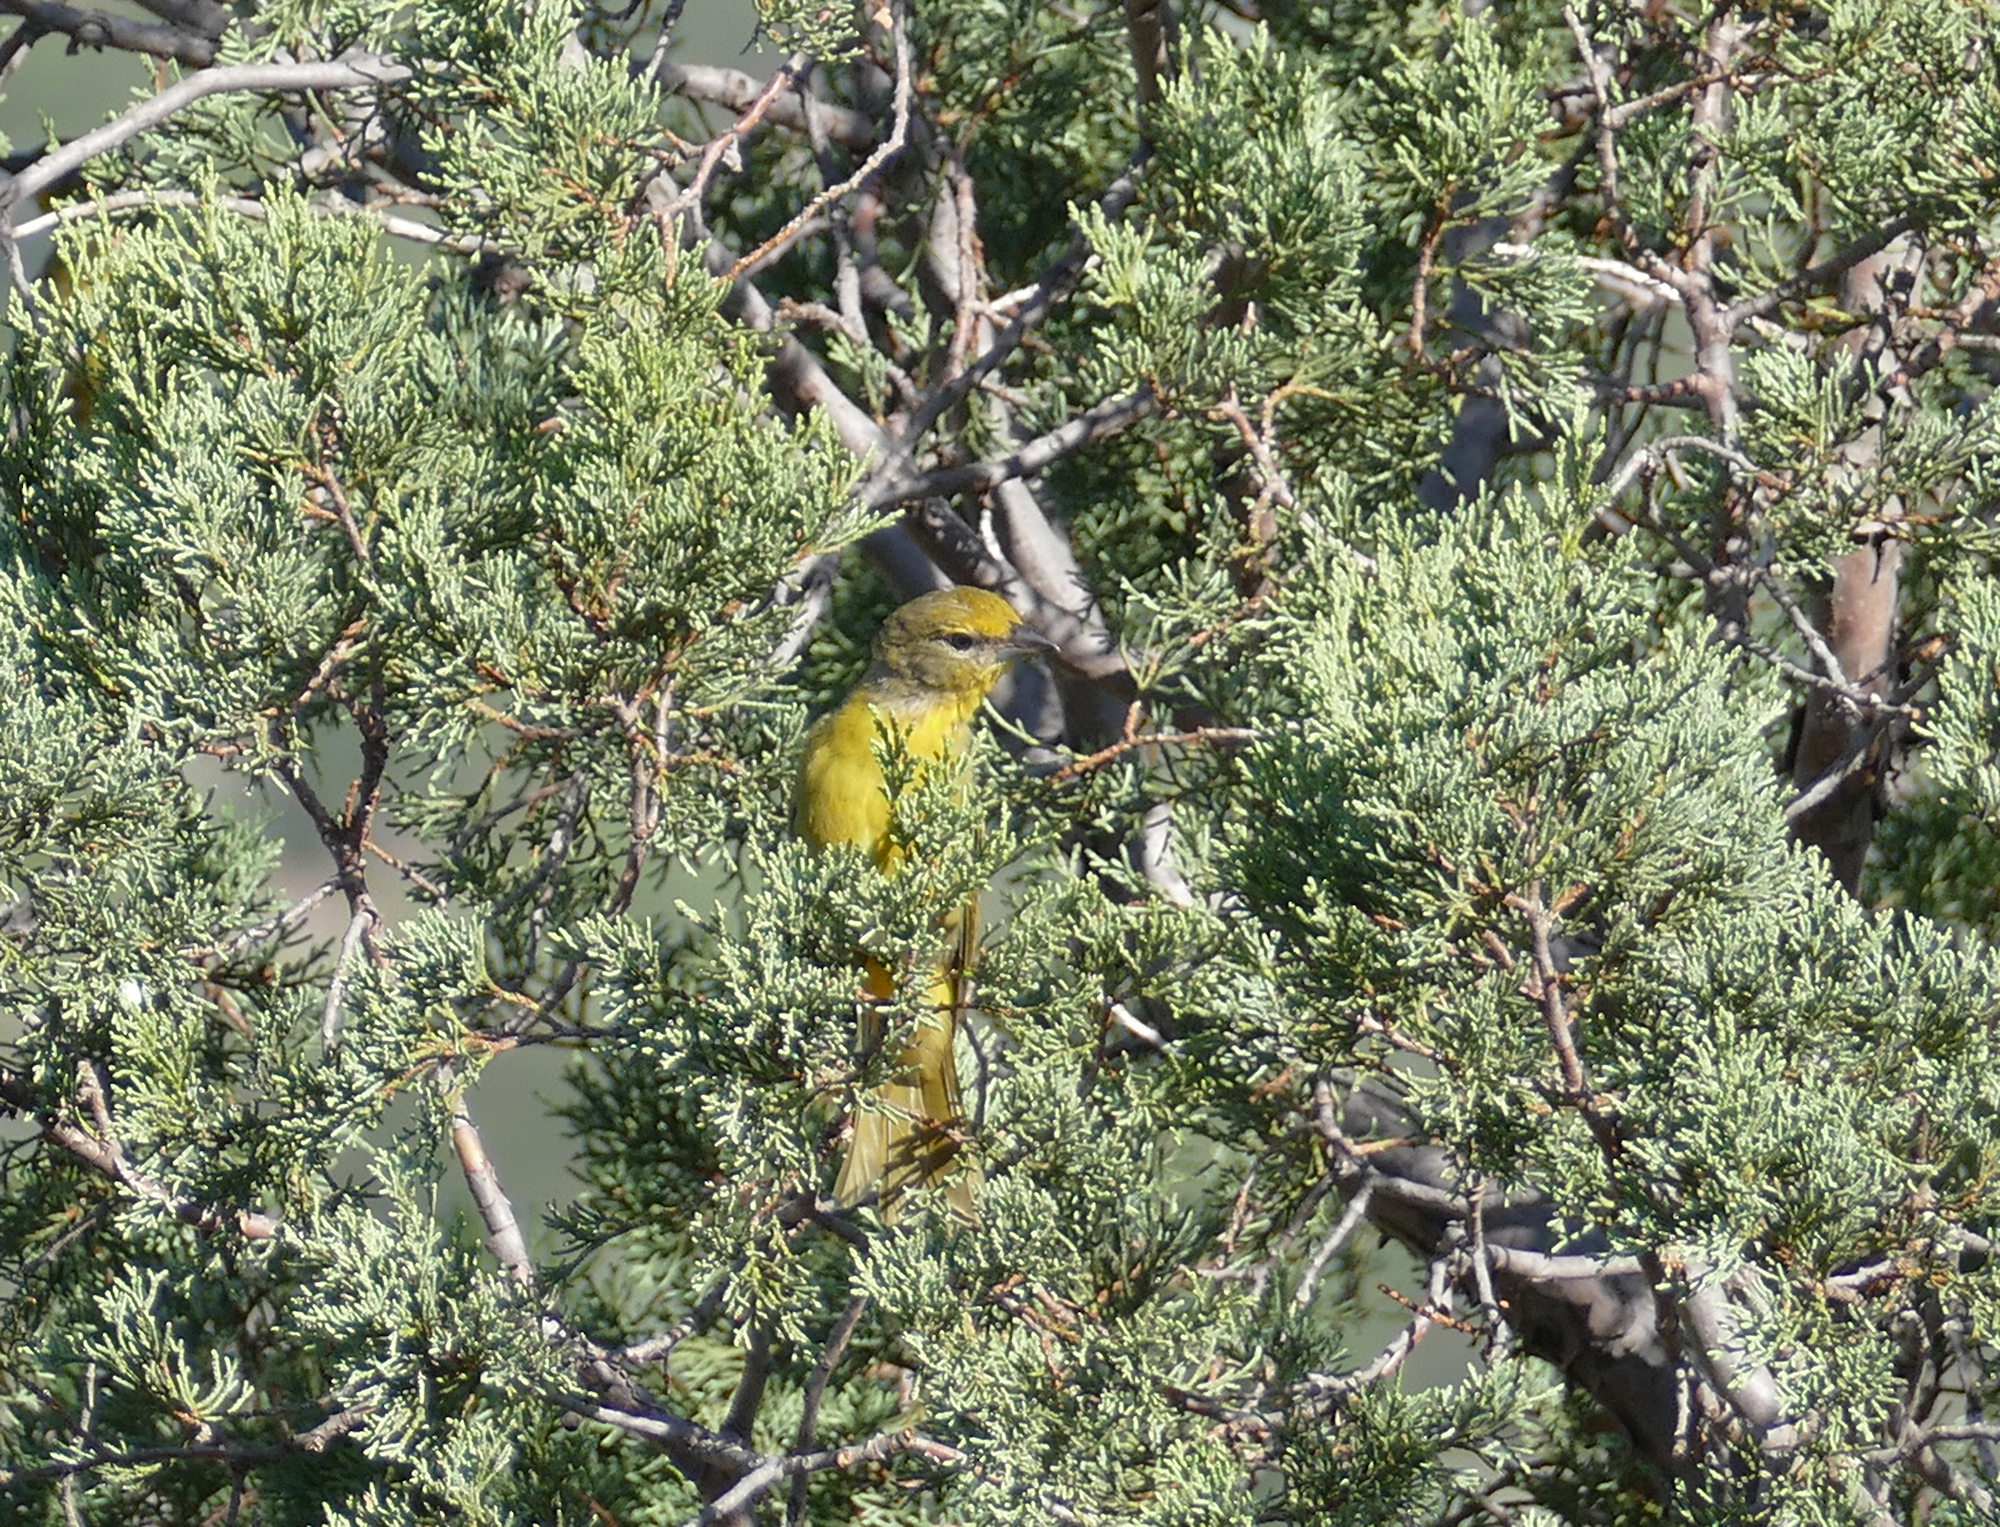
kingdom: Animalia
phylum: Chordata
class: Aves
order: Passeriformes
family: Cardinalidae
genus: Piranga
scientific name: Piranga flava
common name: Red tanager
